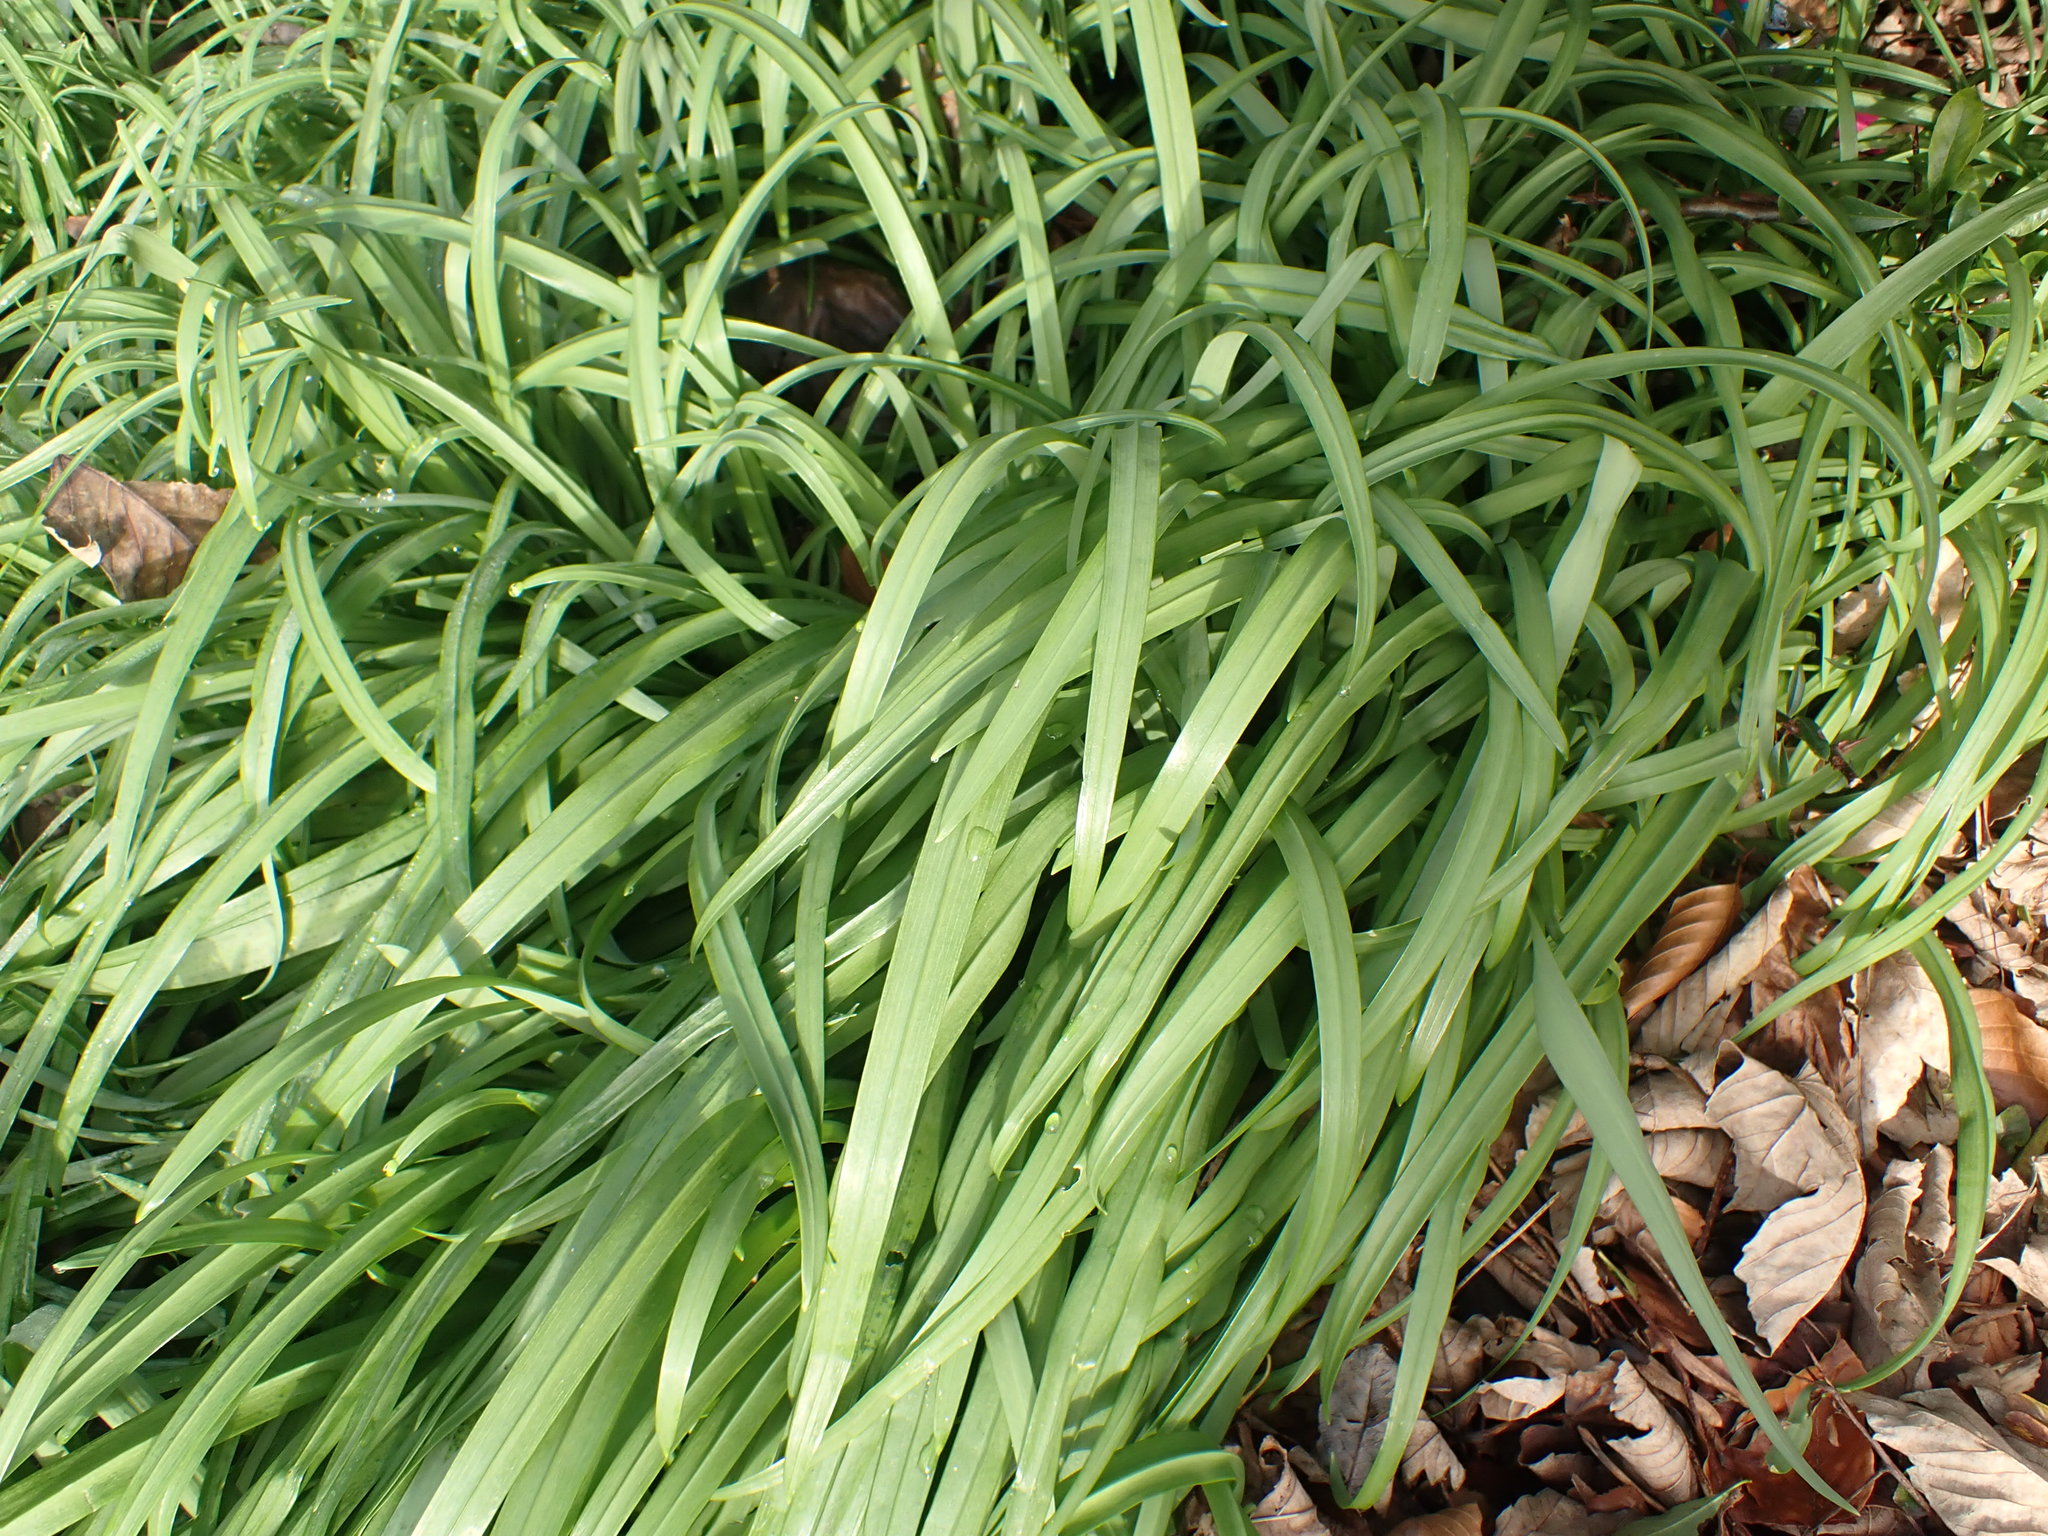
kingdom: Plantae
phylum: Tracheophyta
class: Liliopsida
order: Asparagales
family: Amaryllidaceae
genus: Allium
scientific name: Allium triquetrum
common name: Three-cornered garlic
